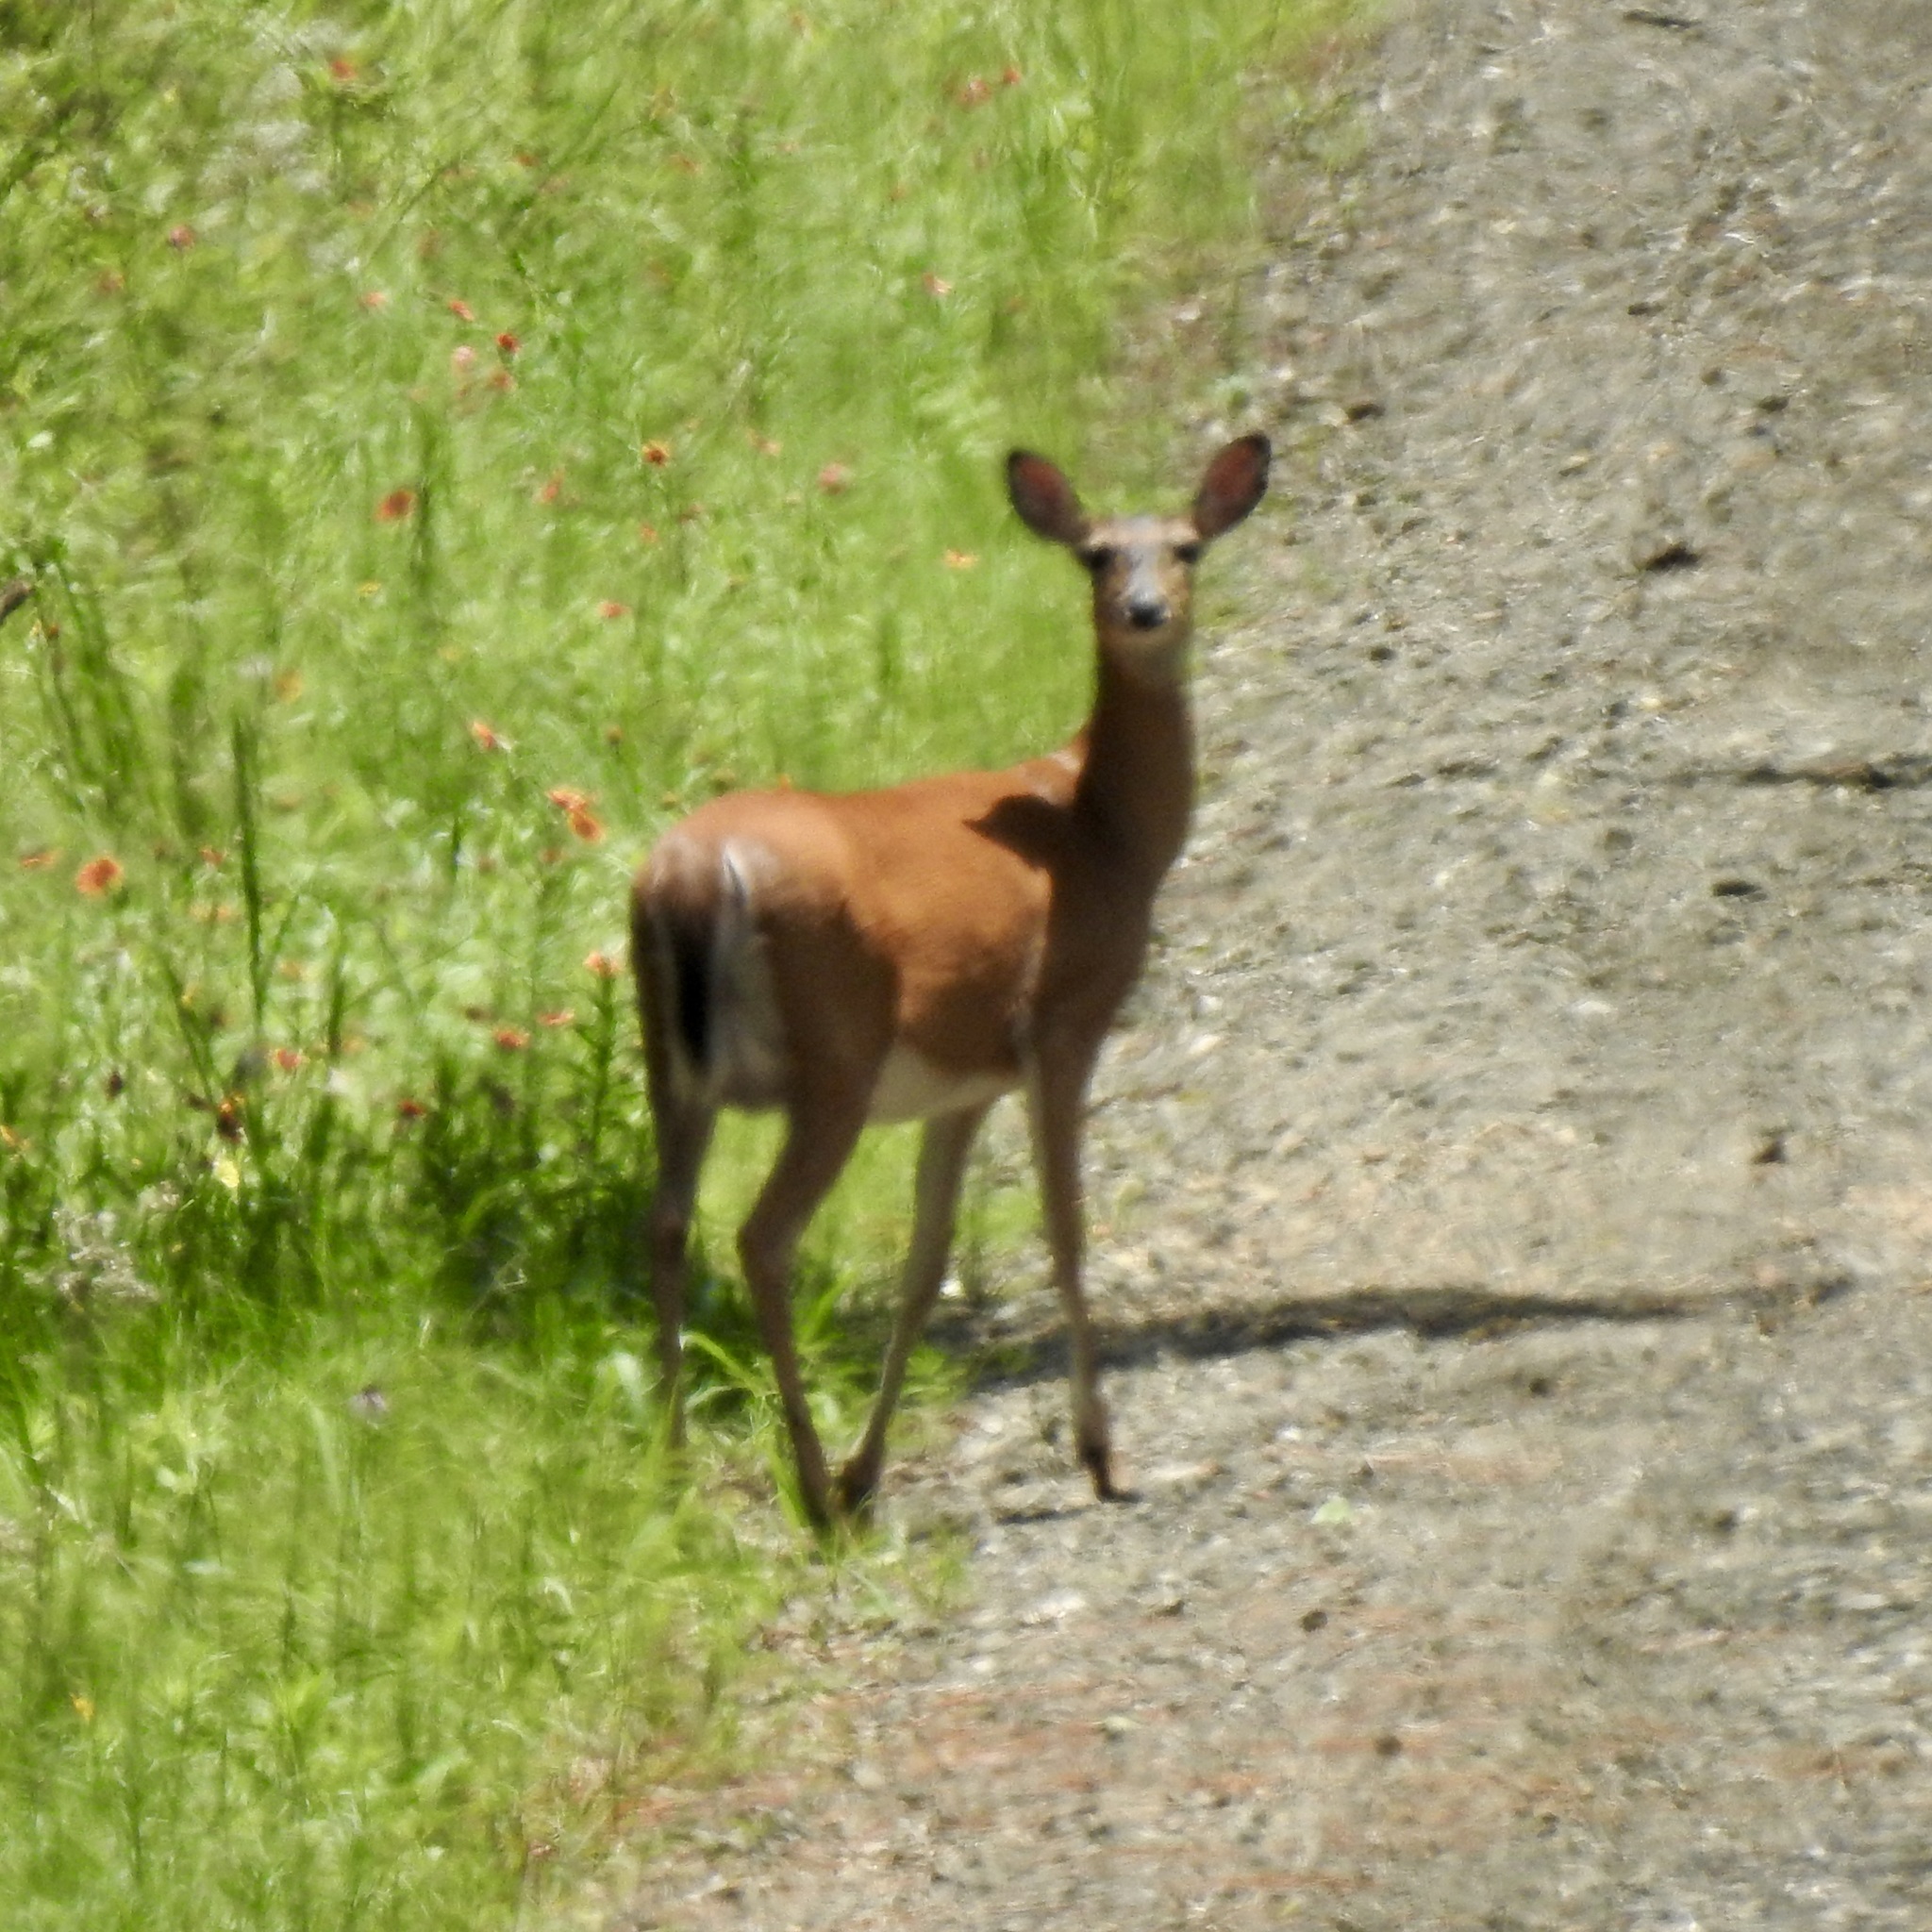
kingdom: Animalia
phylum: Chordata
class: Mammalia
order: Artiodactyla
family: Cervidae
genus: Odocoileus
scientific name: Odocoileus virginianus
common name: White-tailed deer
